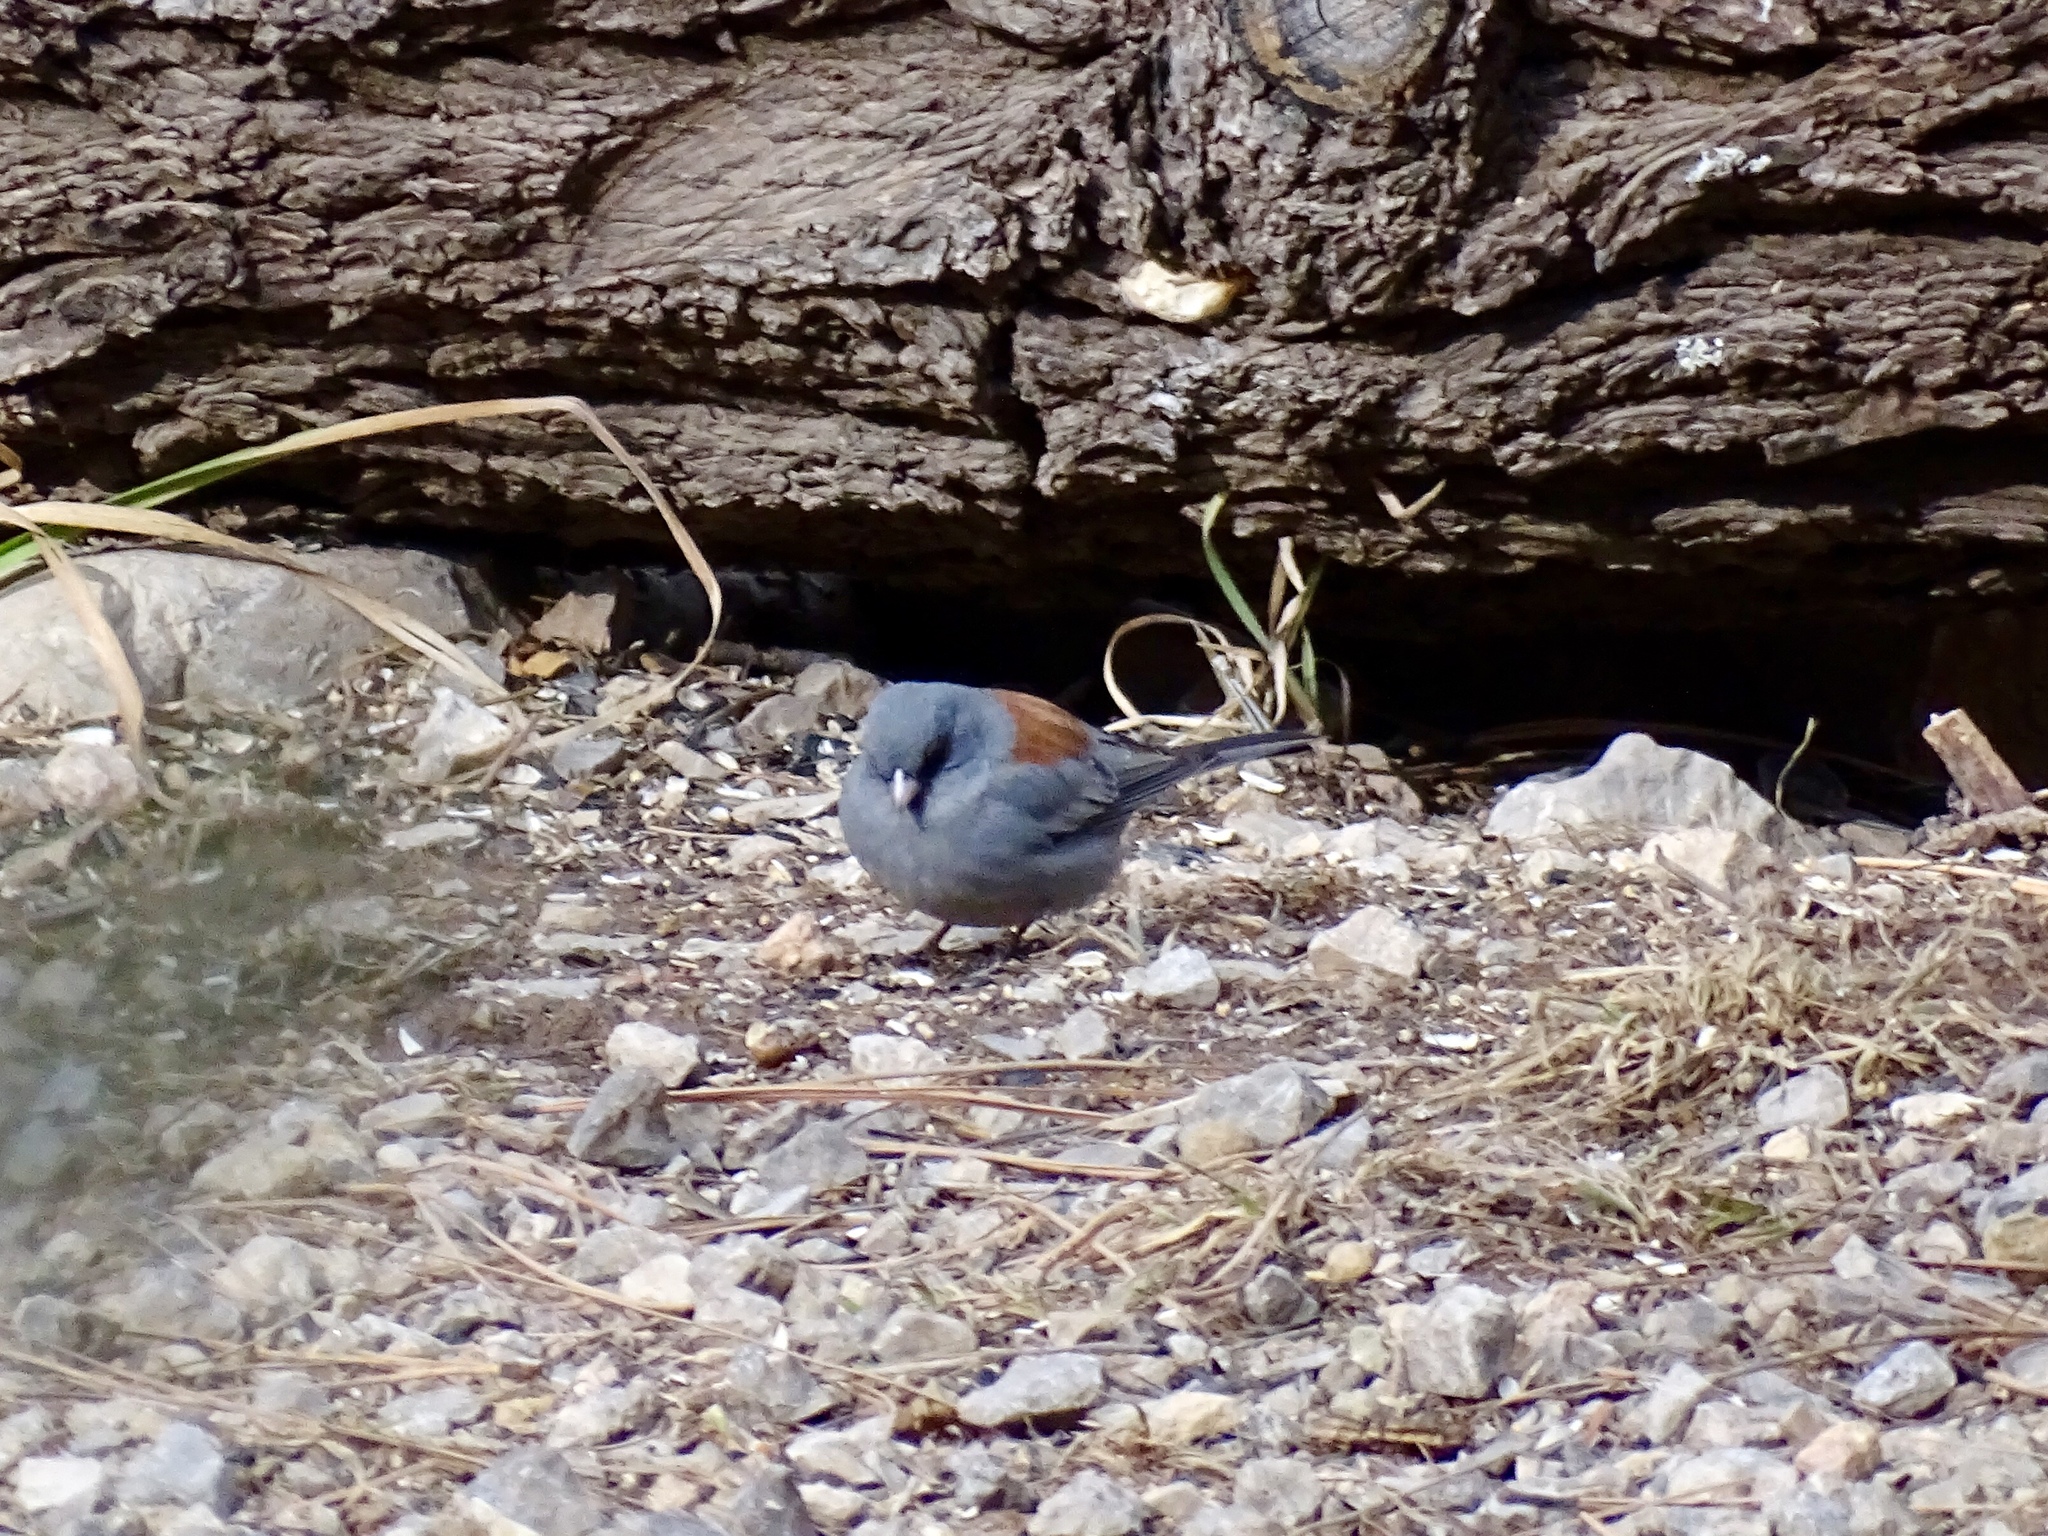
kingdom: Animalia
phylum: Chordata
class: Aves
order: Passeriformes
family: Passerellidae
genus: Junco
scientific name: Junco hyemalis
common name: Dark-eyed junco
